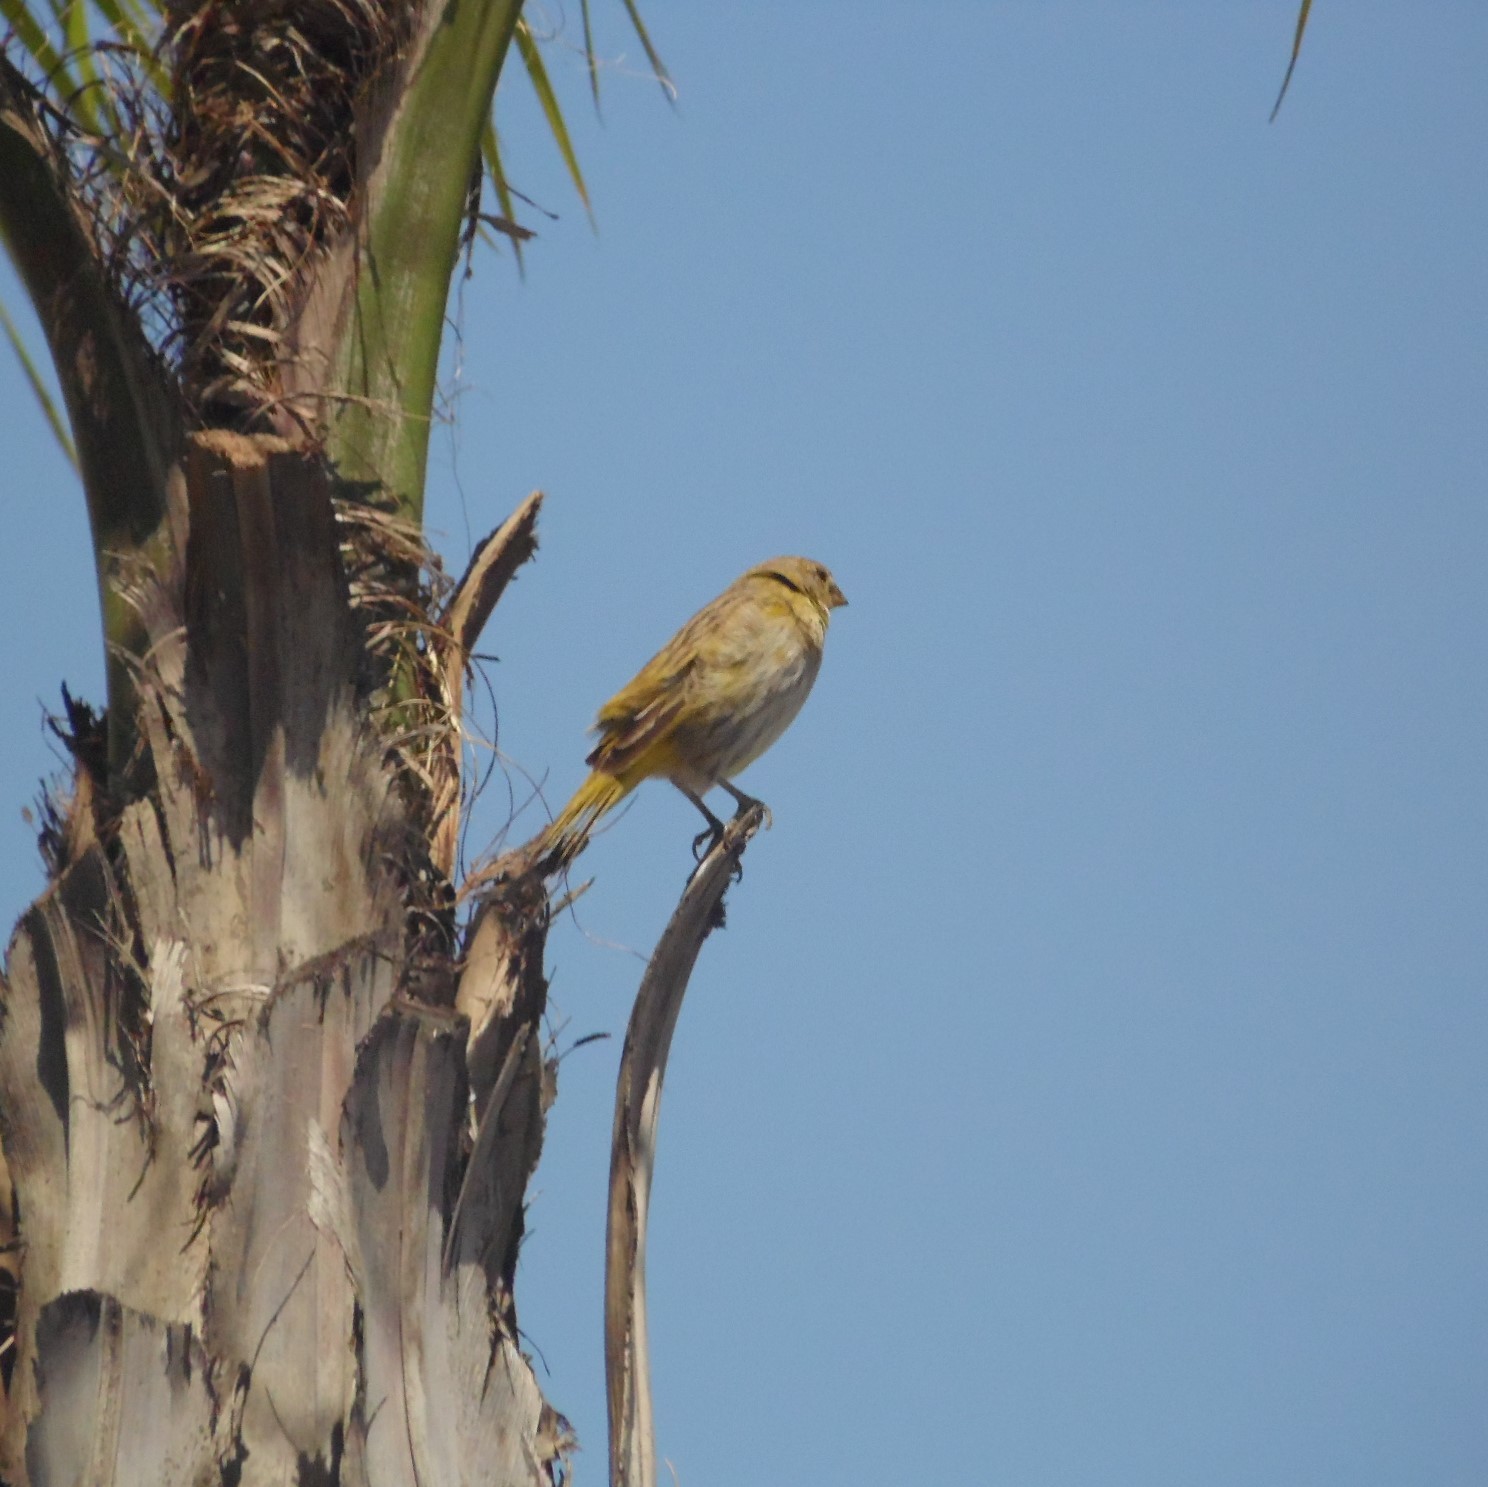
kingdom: Animalia
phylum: Chordata
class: Aves
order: Passeriformes
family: Thraupidae
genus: Sicalis
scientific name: Sicalis flaveola
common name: Saffron finch
